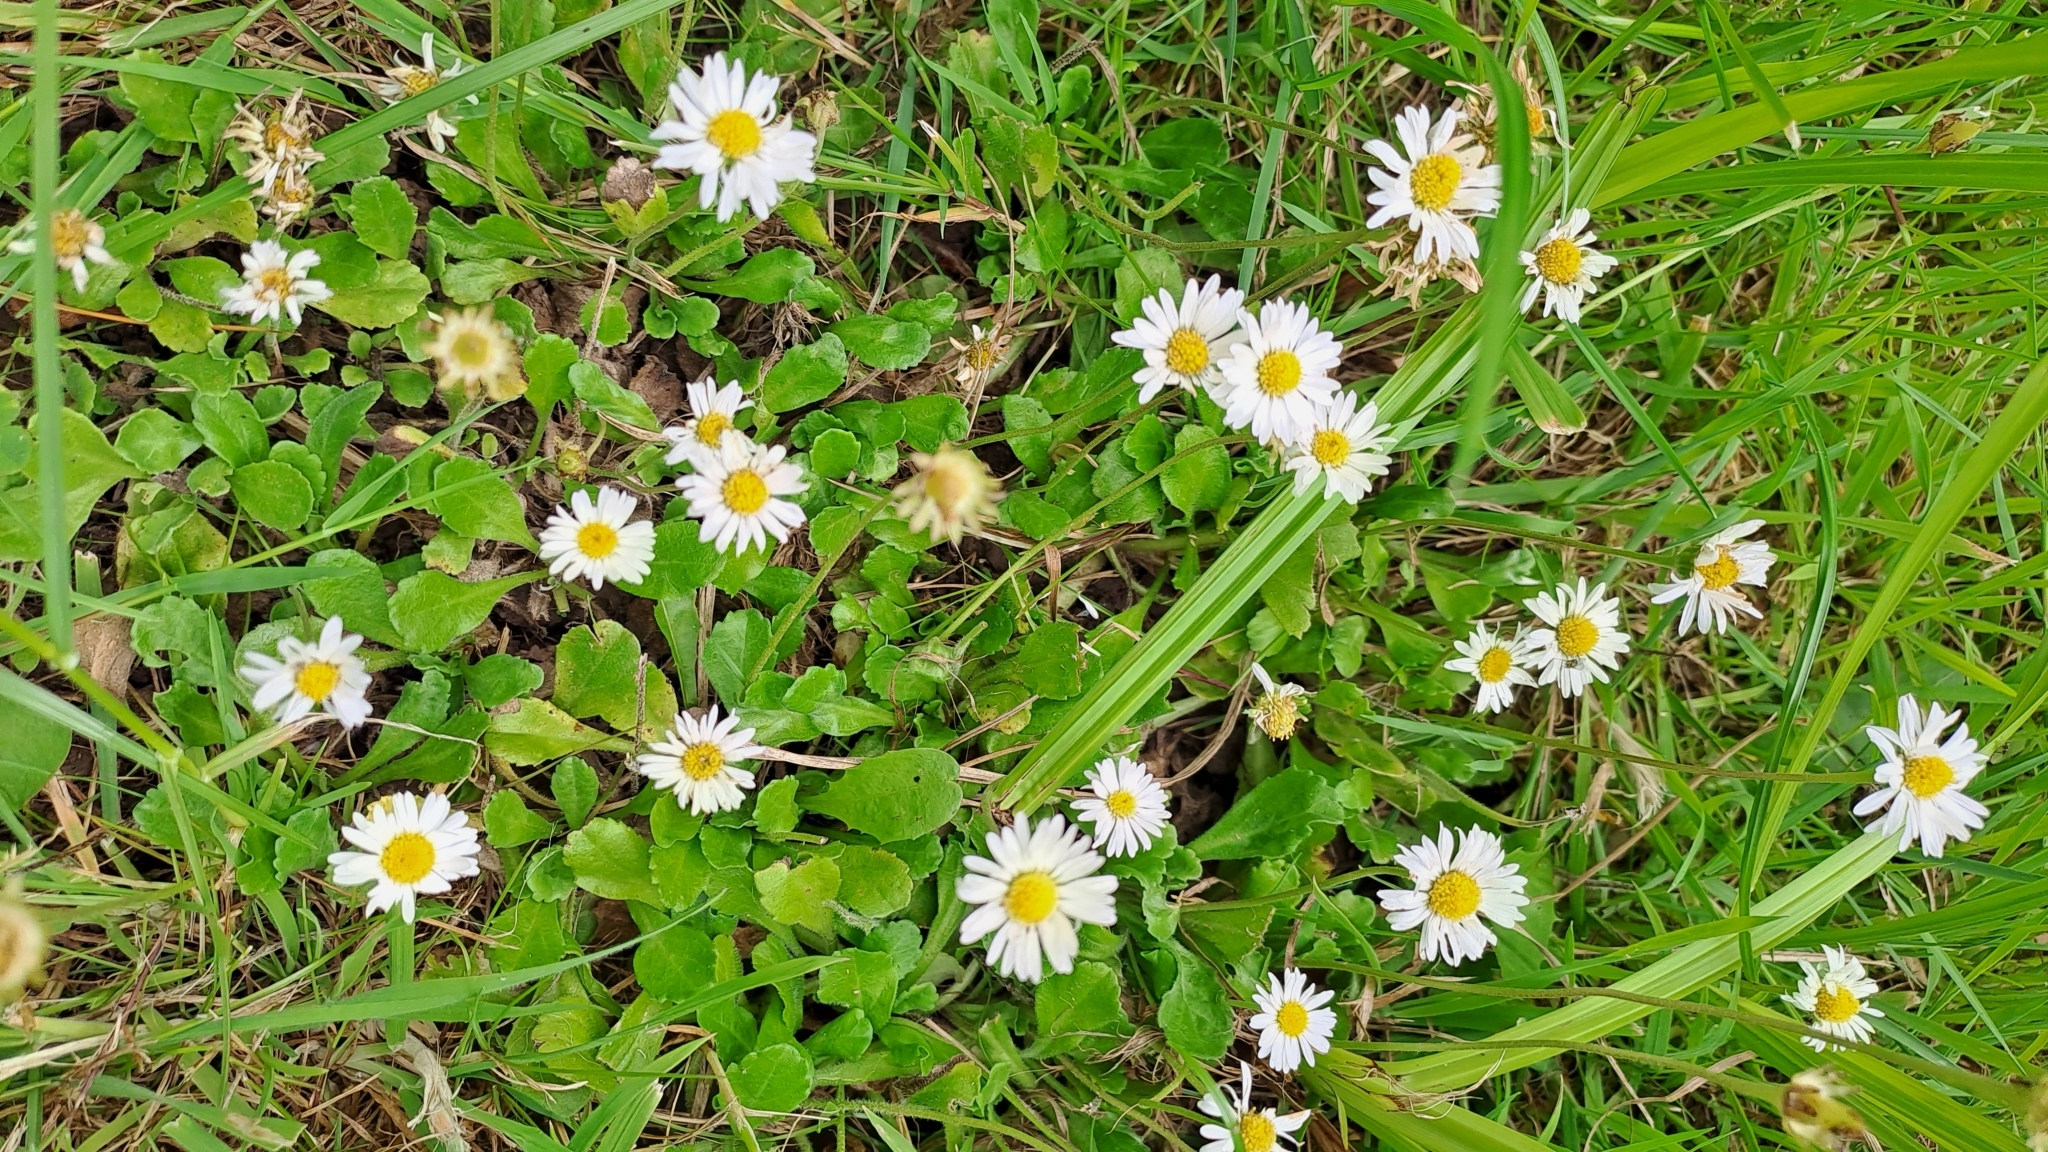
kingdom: Plantae
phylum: Tracheophyta
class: Magnoliopsida
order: Asterales
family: Asteraceae
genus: Bellis
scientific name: Bellis perennis
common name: Lawndaisy
